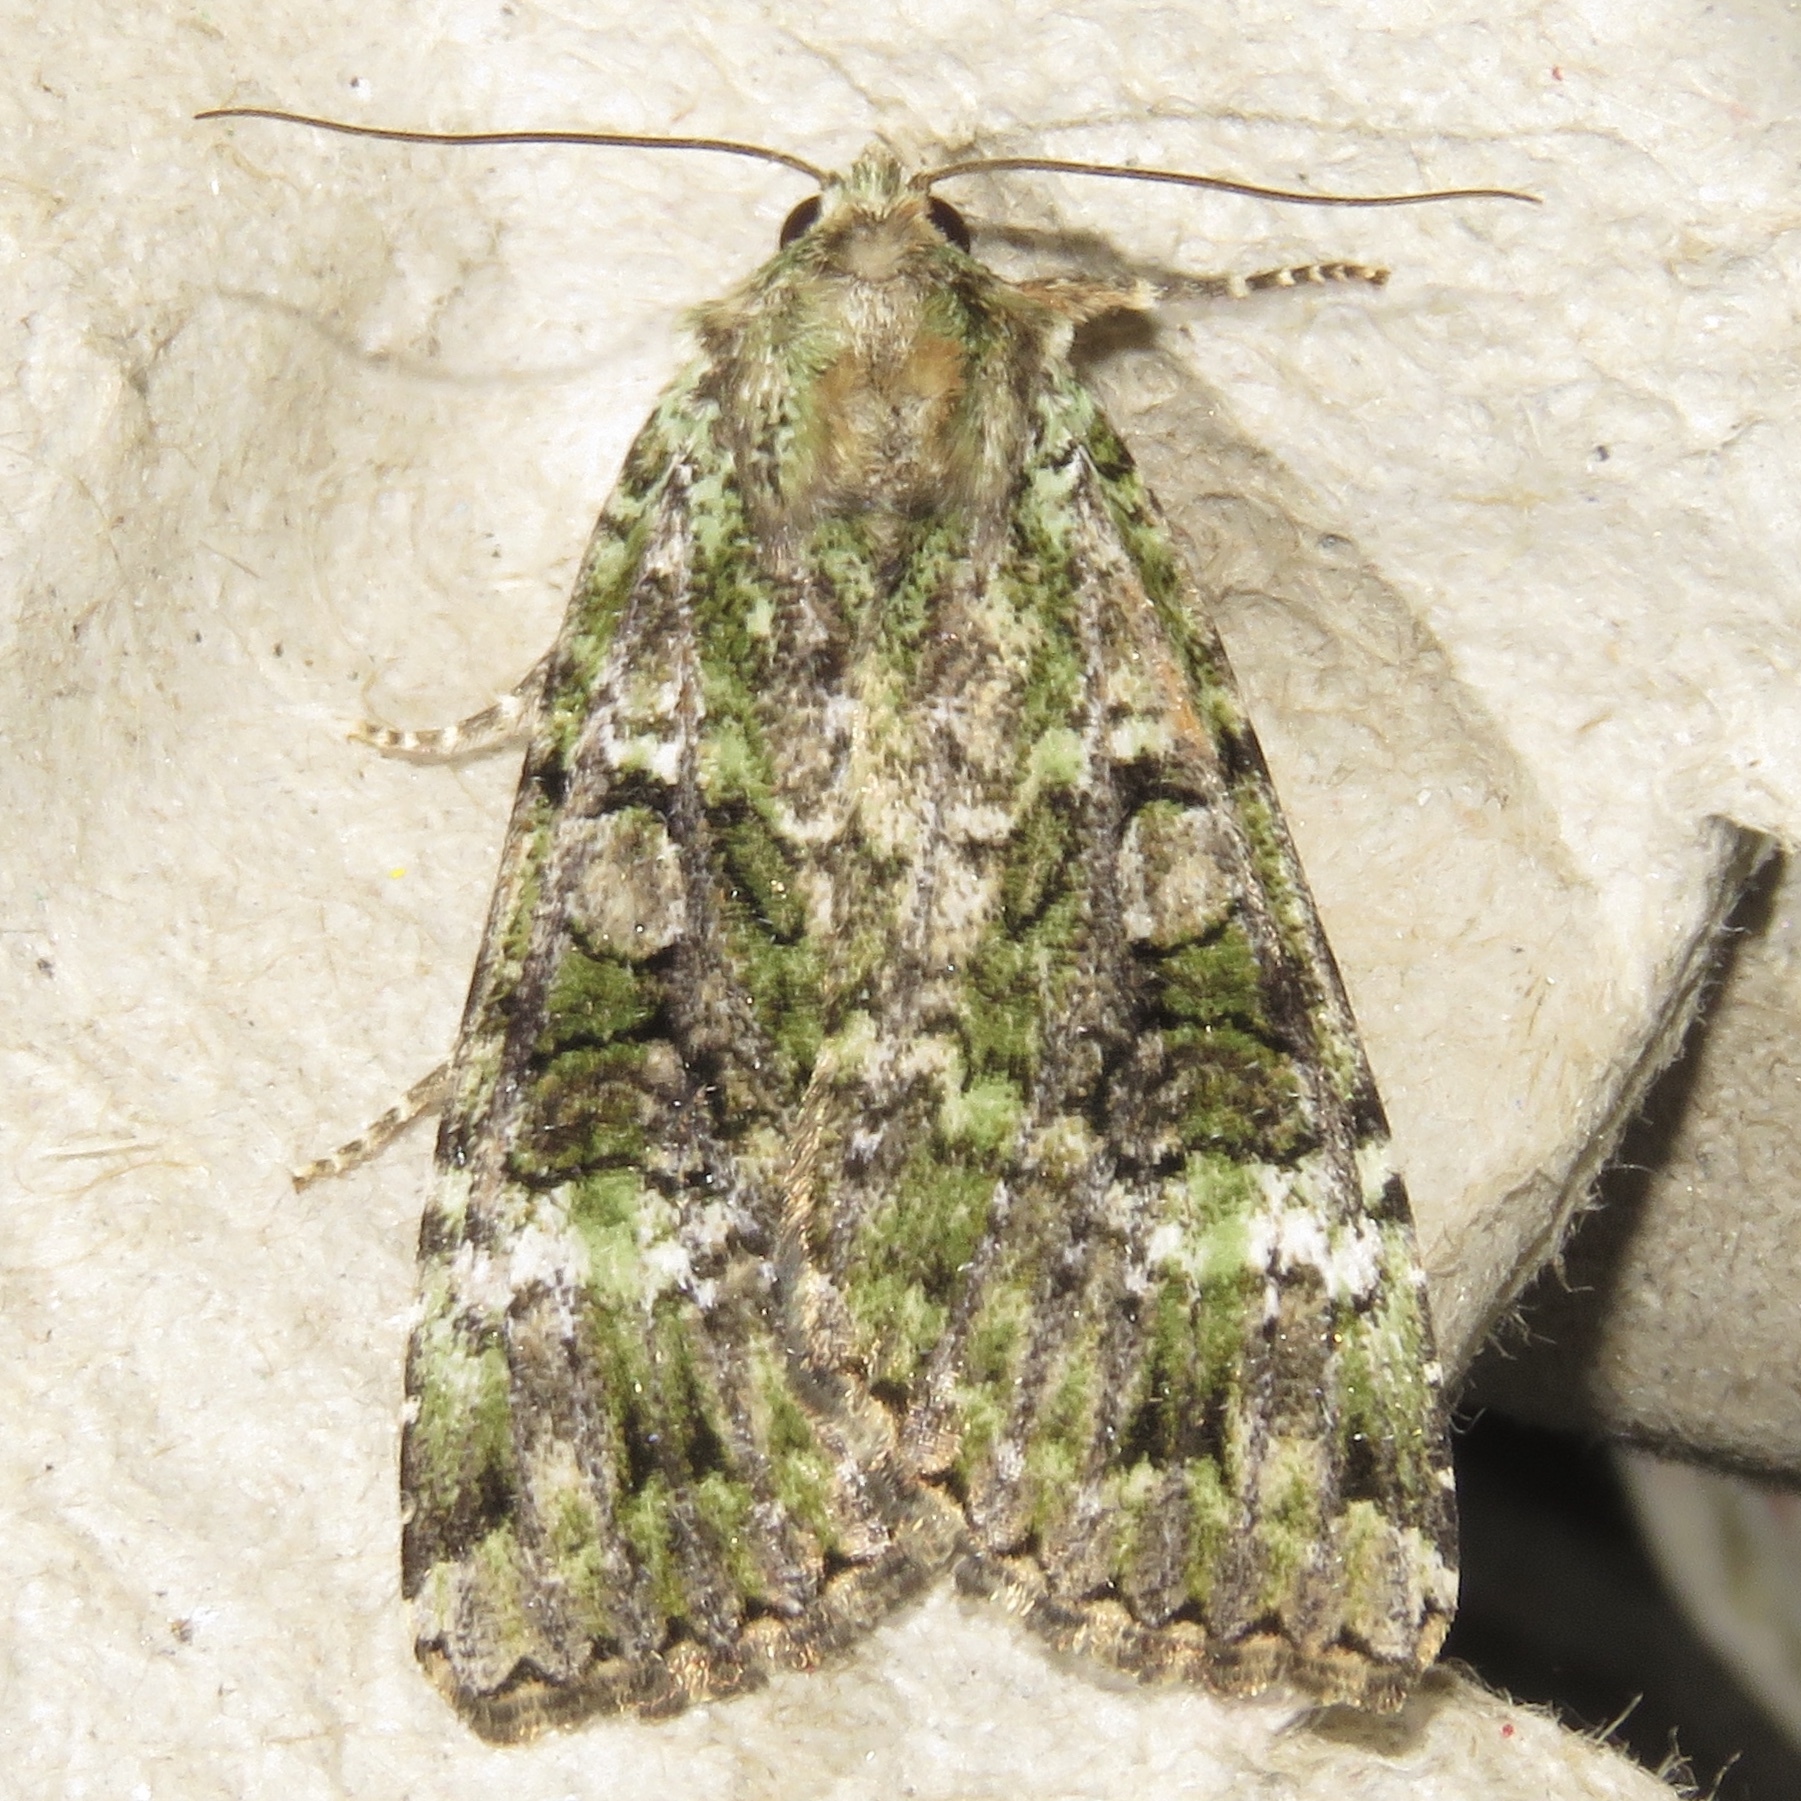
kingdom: Animalia
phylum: Arthropoda
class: Insecta
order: Lepidoptera
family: Noctuidae
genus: Anaplectoides
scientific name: Anaplectoides prasina
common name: Green arches
